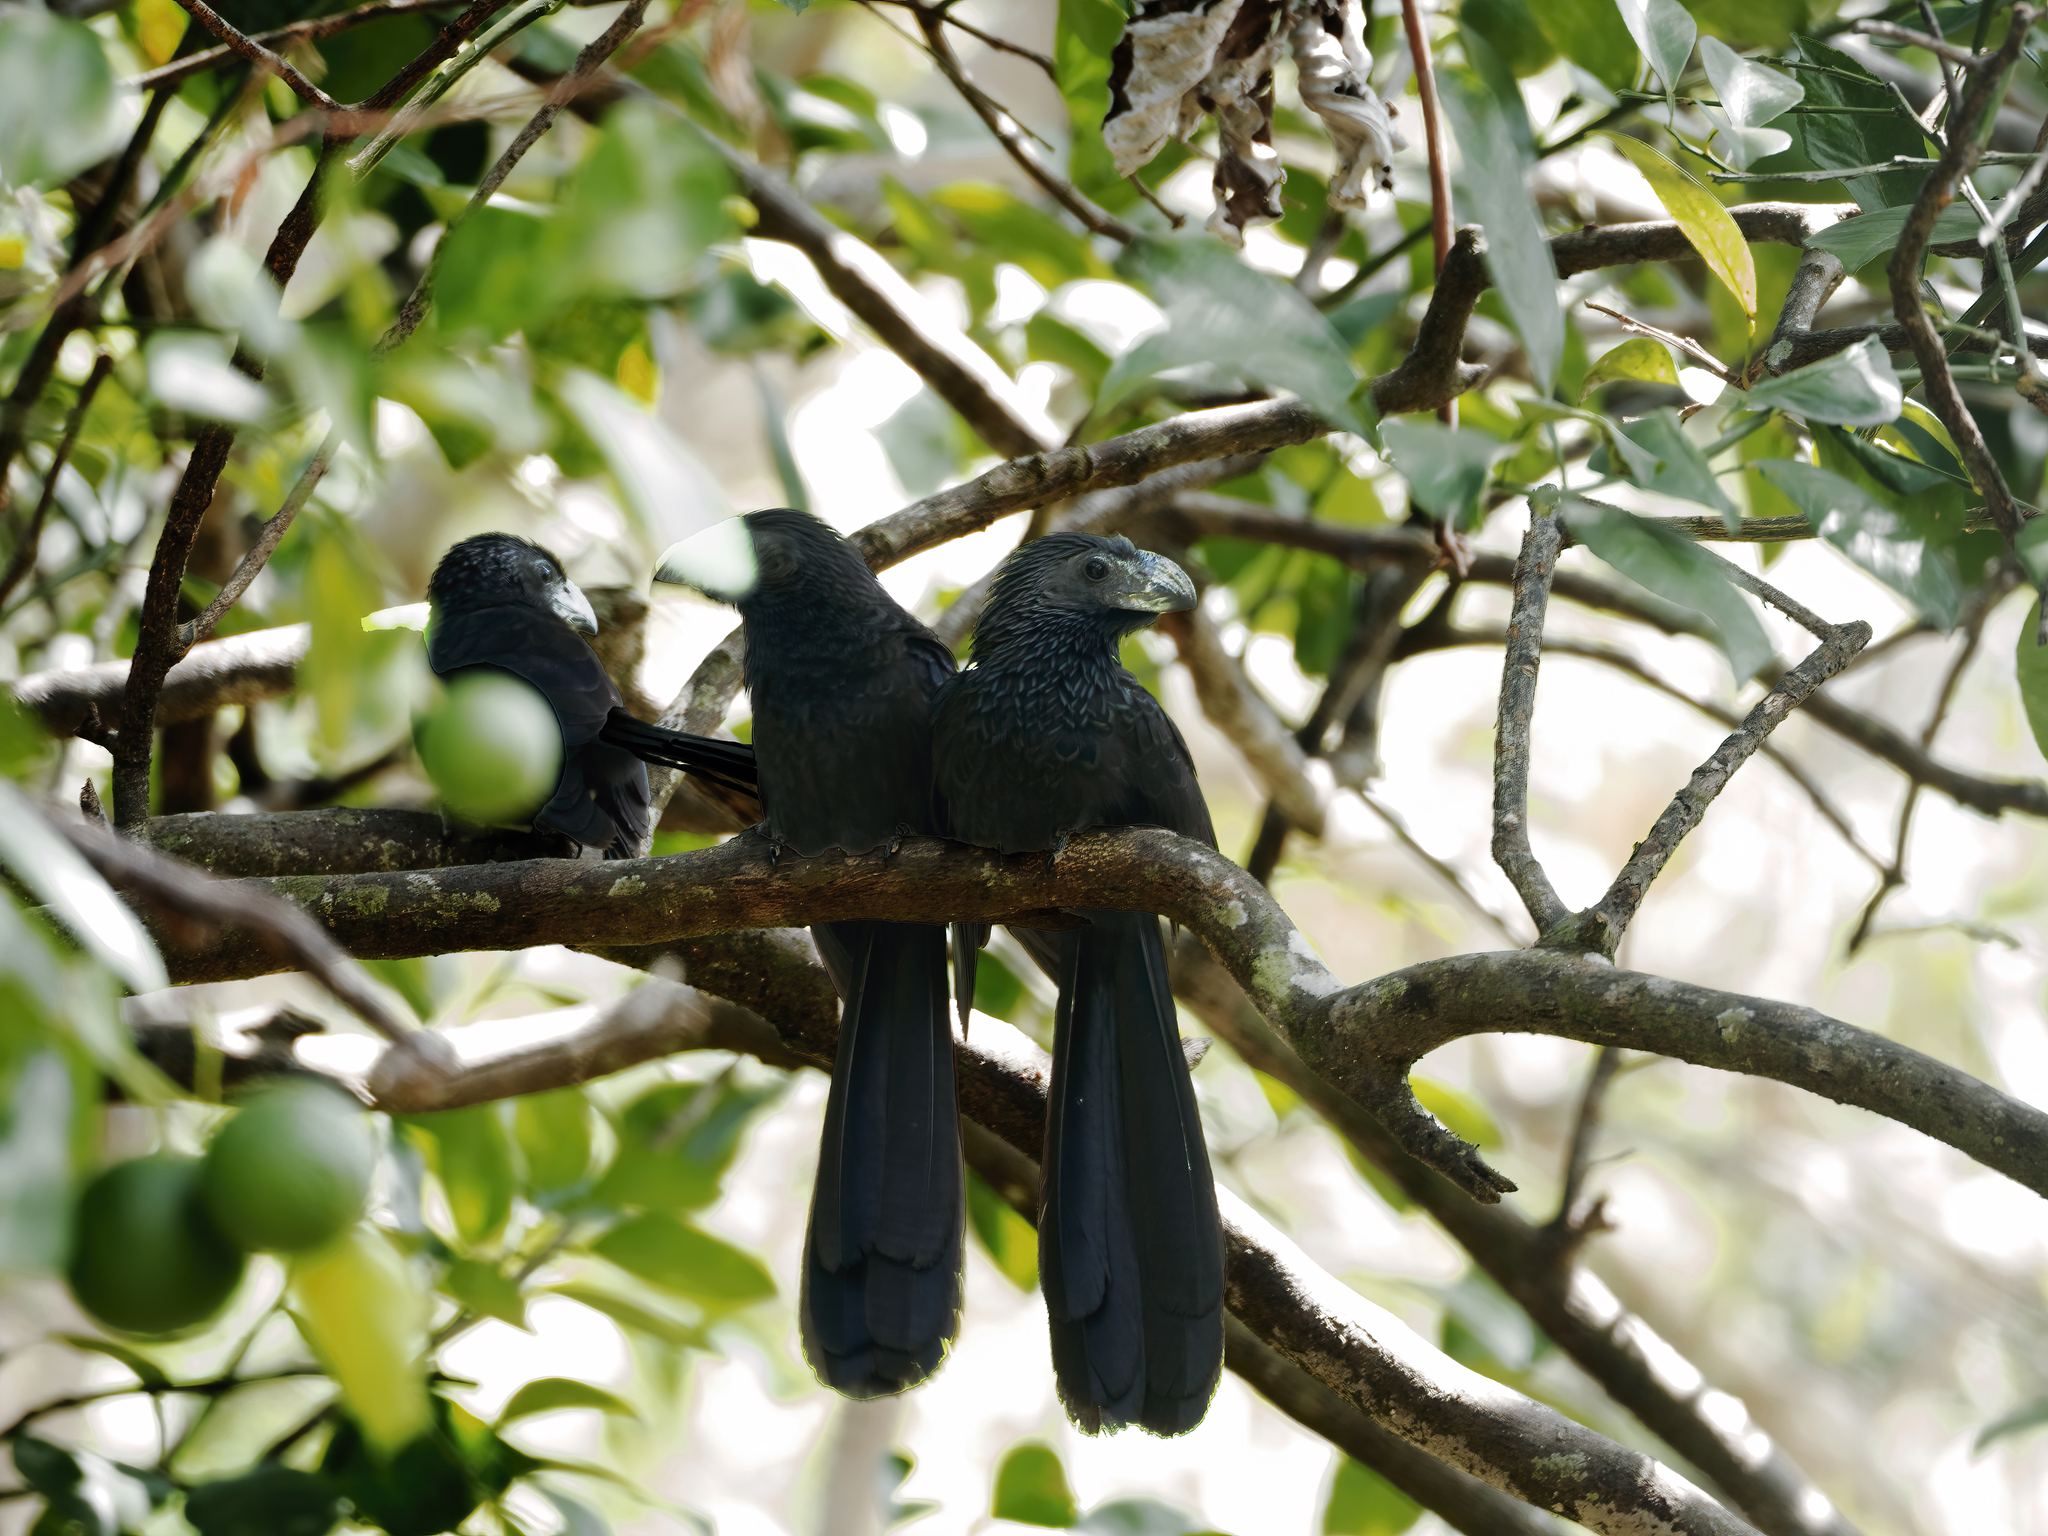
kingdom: Animalia
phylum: Chordata
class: Aves
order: Cuculiformes
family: Cuculidae
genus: Crotophaga
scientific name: Crotophaga sulcirostris
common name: Groove-billed ani
